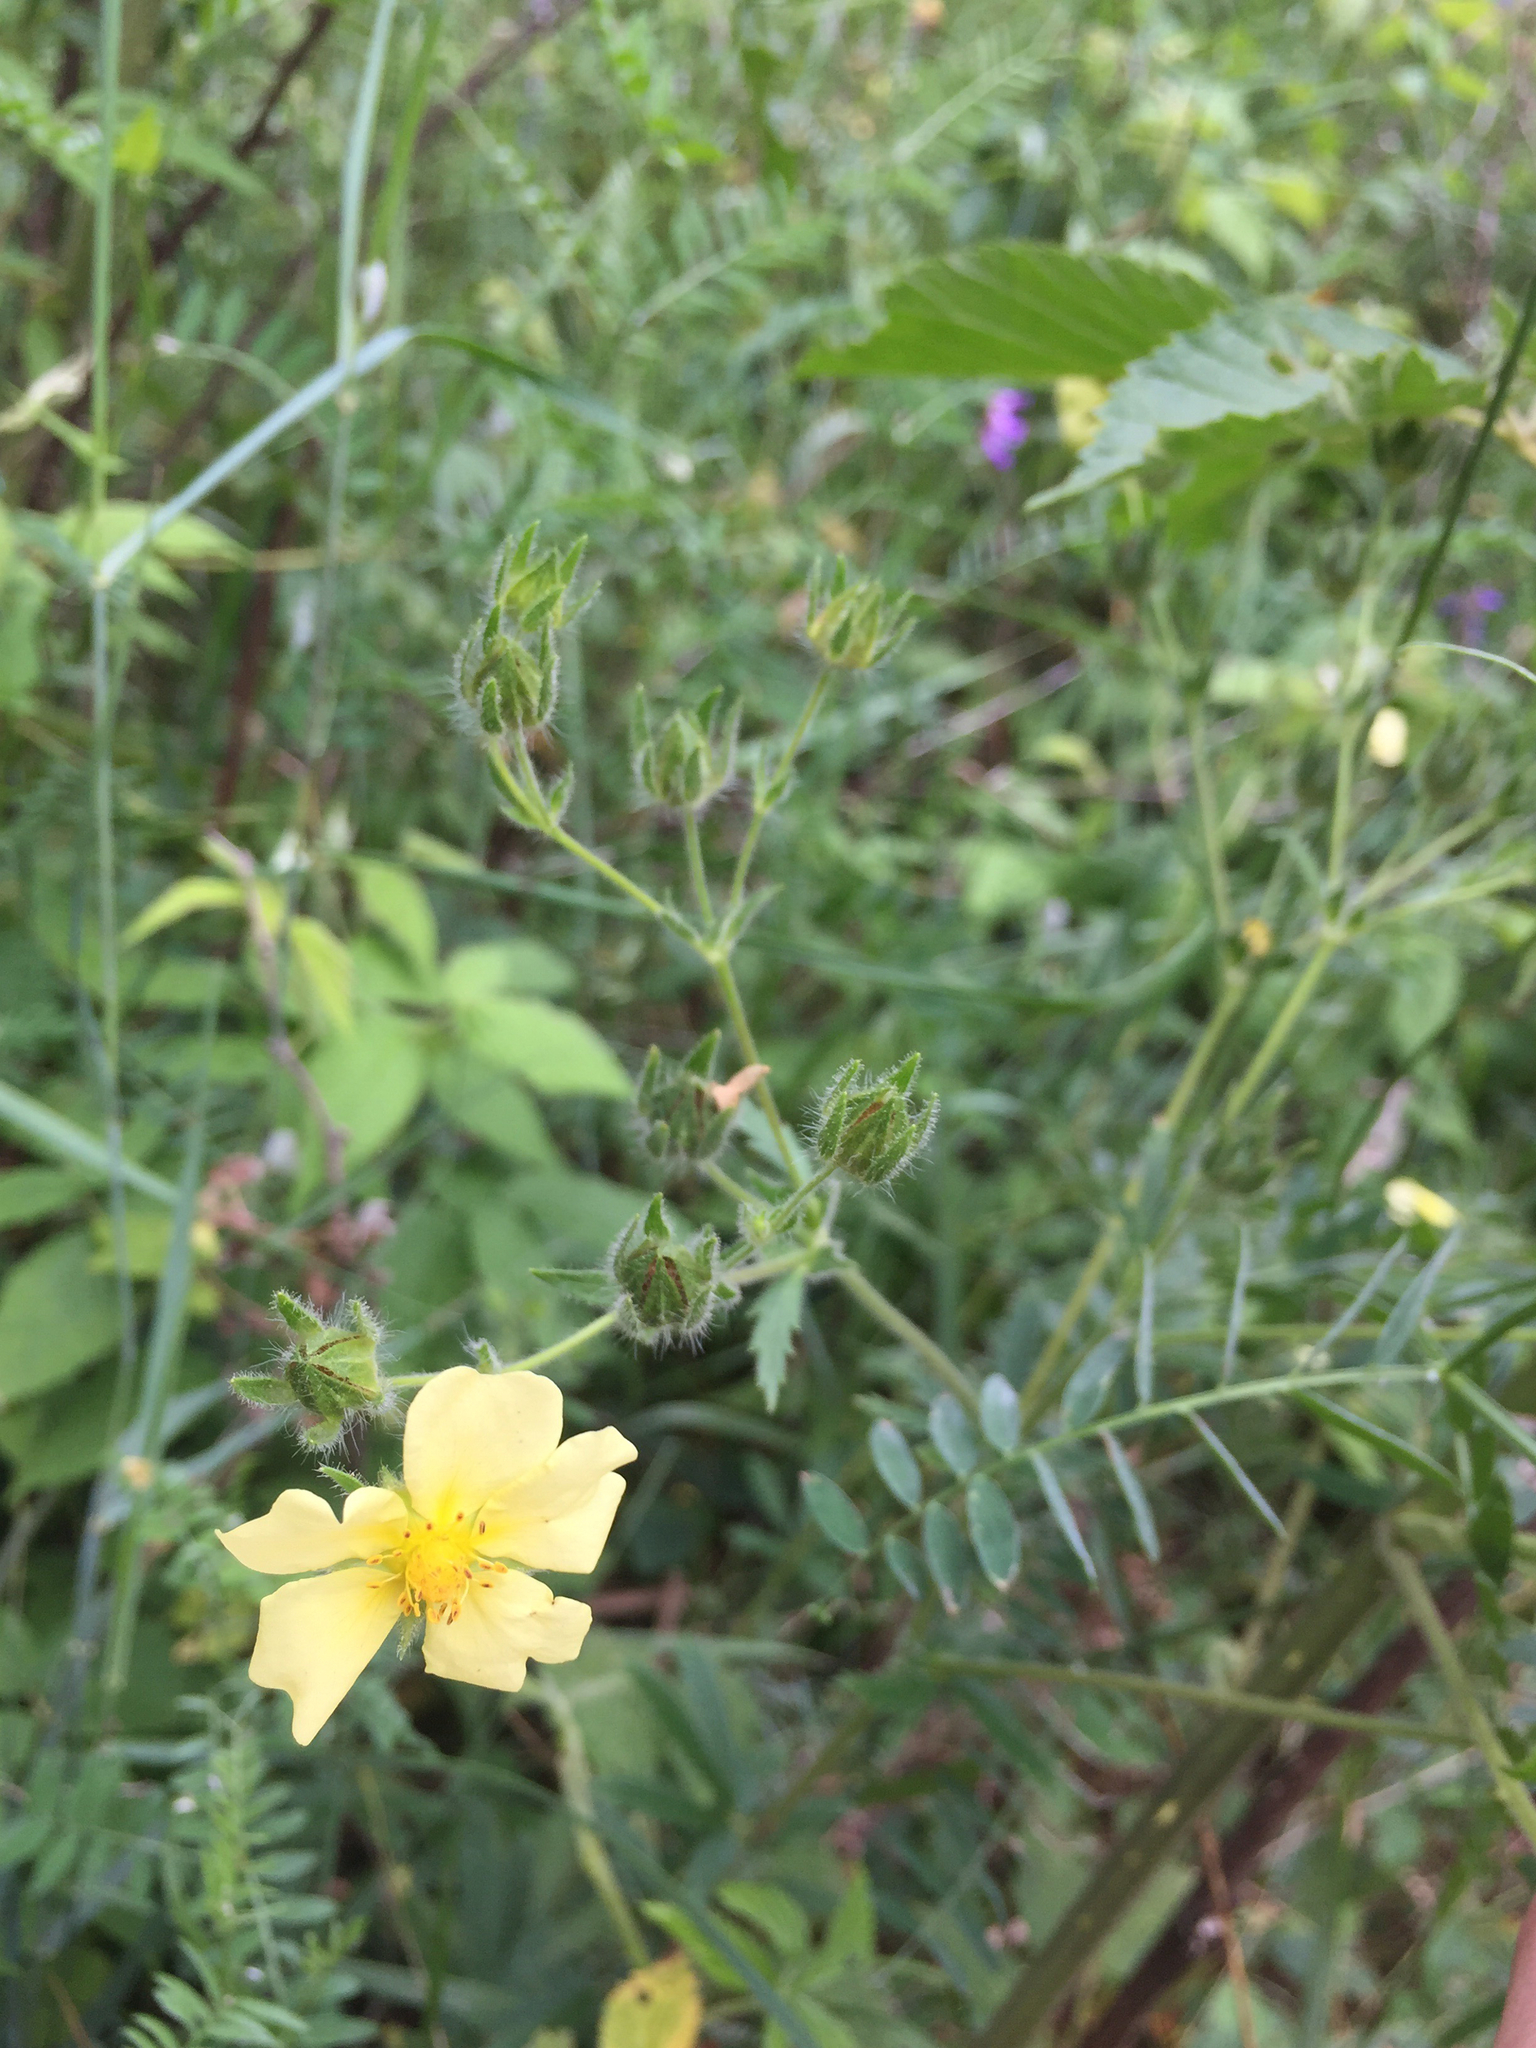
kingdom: Plantae
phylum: Tracheophyta
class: Magnoliopsida
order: Rosales
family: Rosaceae
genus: Potentilla
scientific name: Potentilla recta
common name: Sulphur cinquefoil
